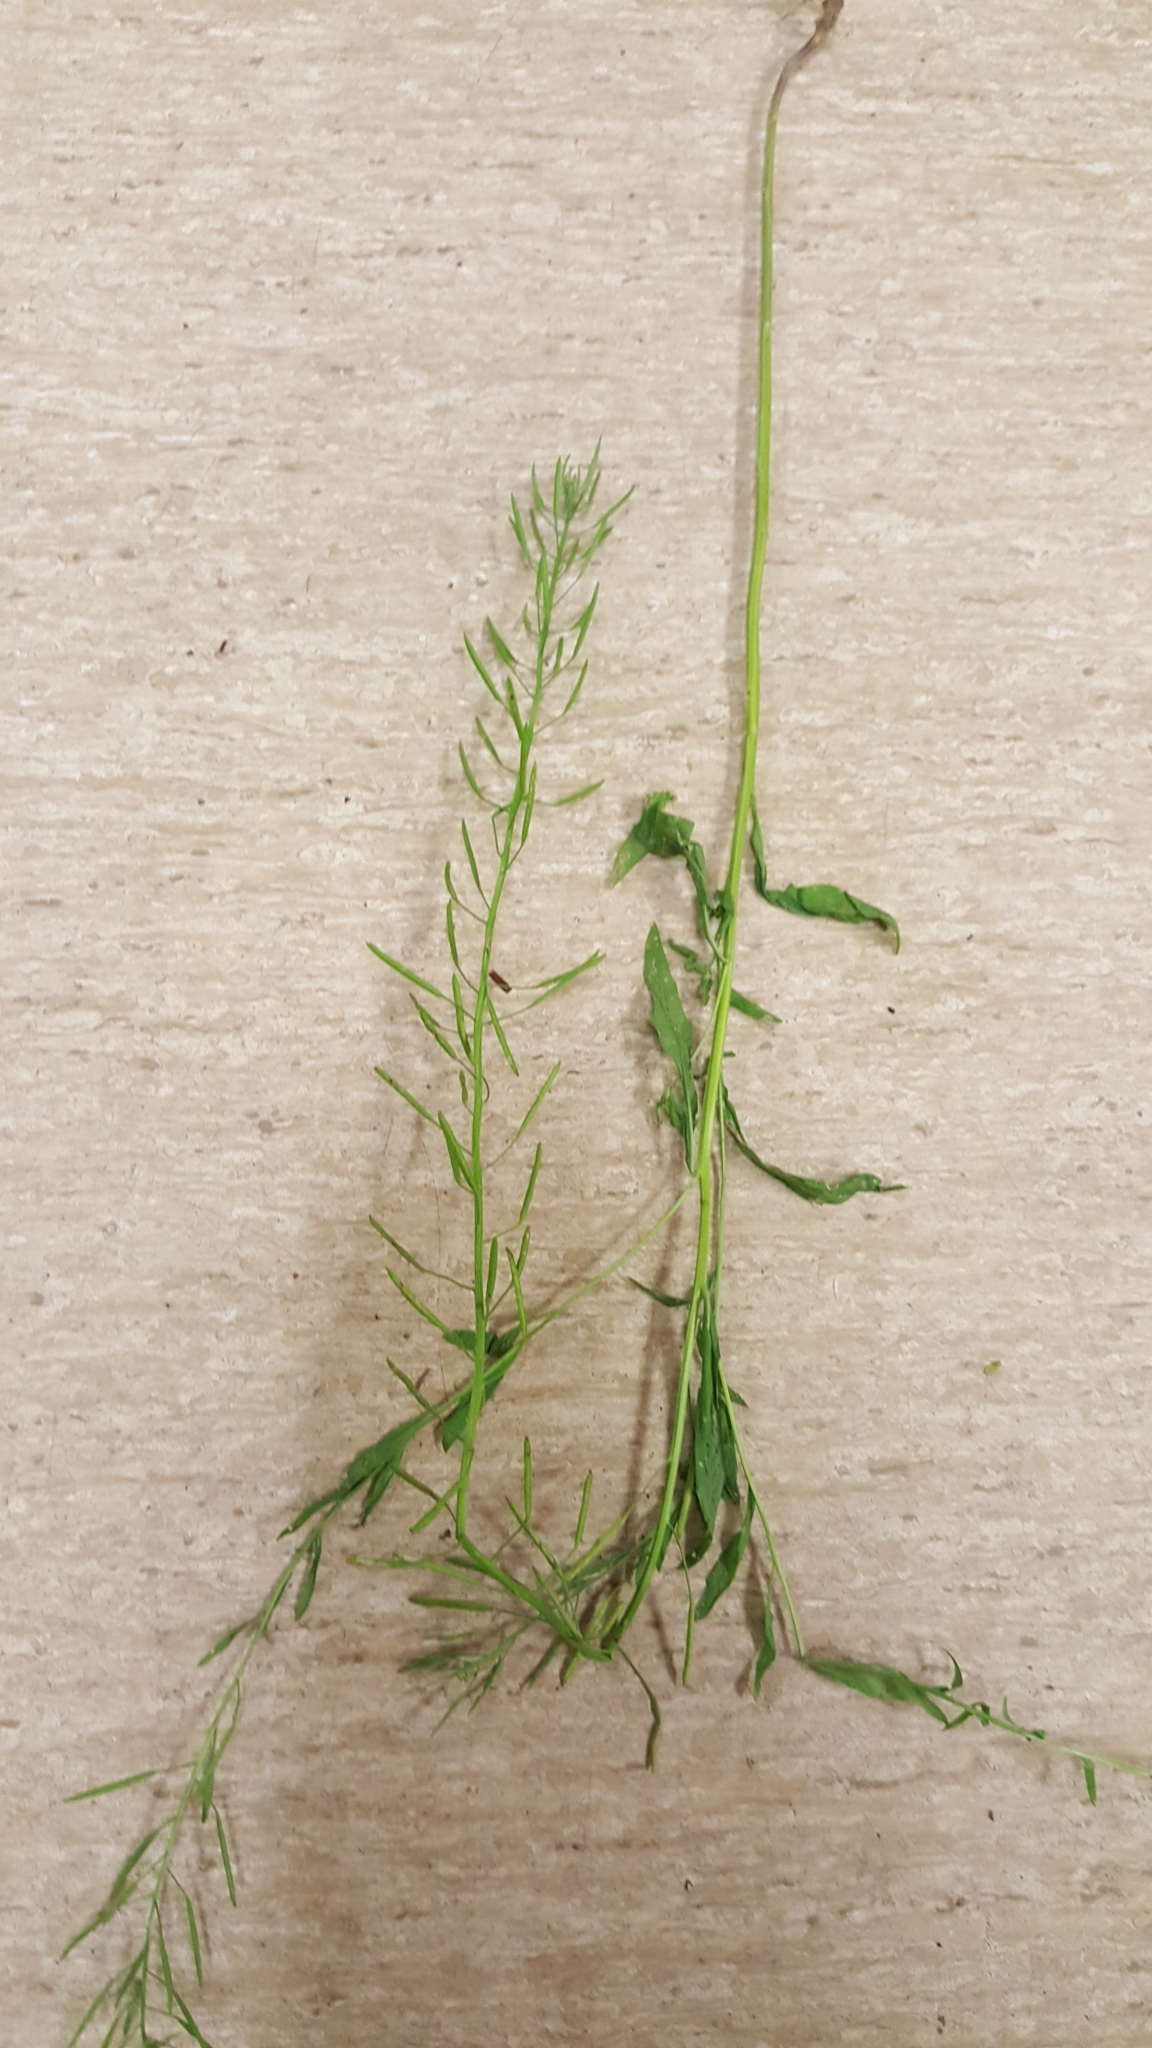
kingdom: Plantae
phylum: Tracheophyta
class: Magnoliopsida
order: Brassicales
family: Brassicaceae
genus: Erysimum
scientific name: Erysimum cheiranthoides
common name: Treacle mustard
